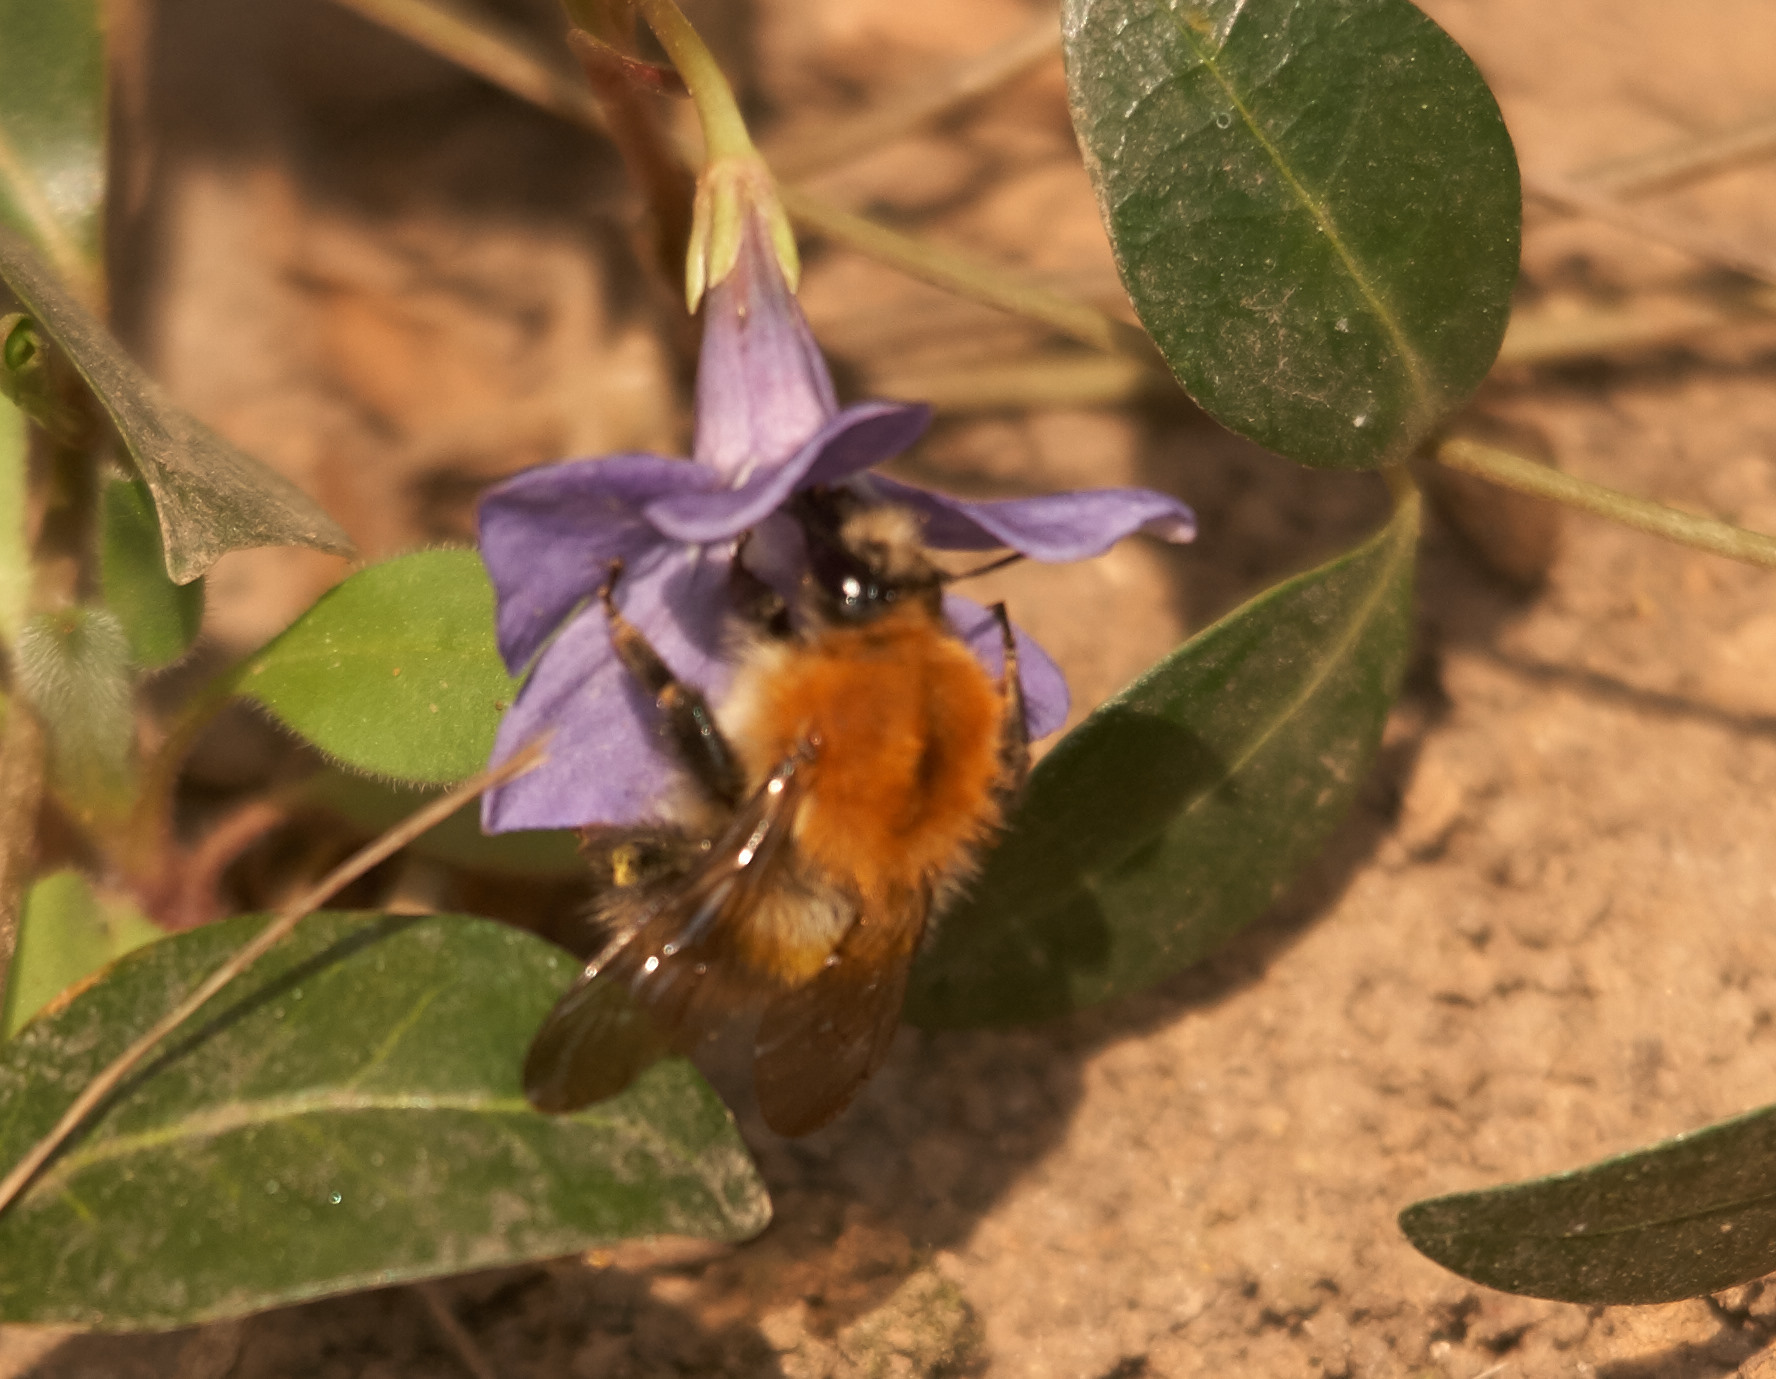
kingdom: Animalia
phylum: Arthropoda
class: Insecta
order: Hymenoptera
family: Apidae
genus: Bombus
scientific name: Bombus pascuorum
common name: Common carder bee
